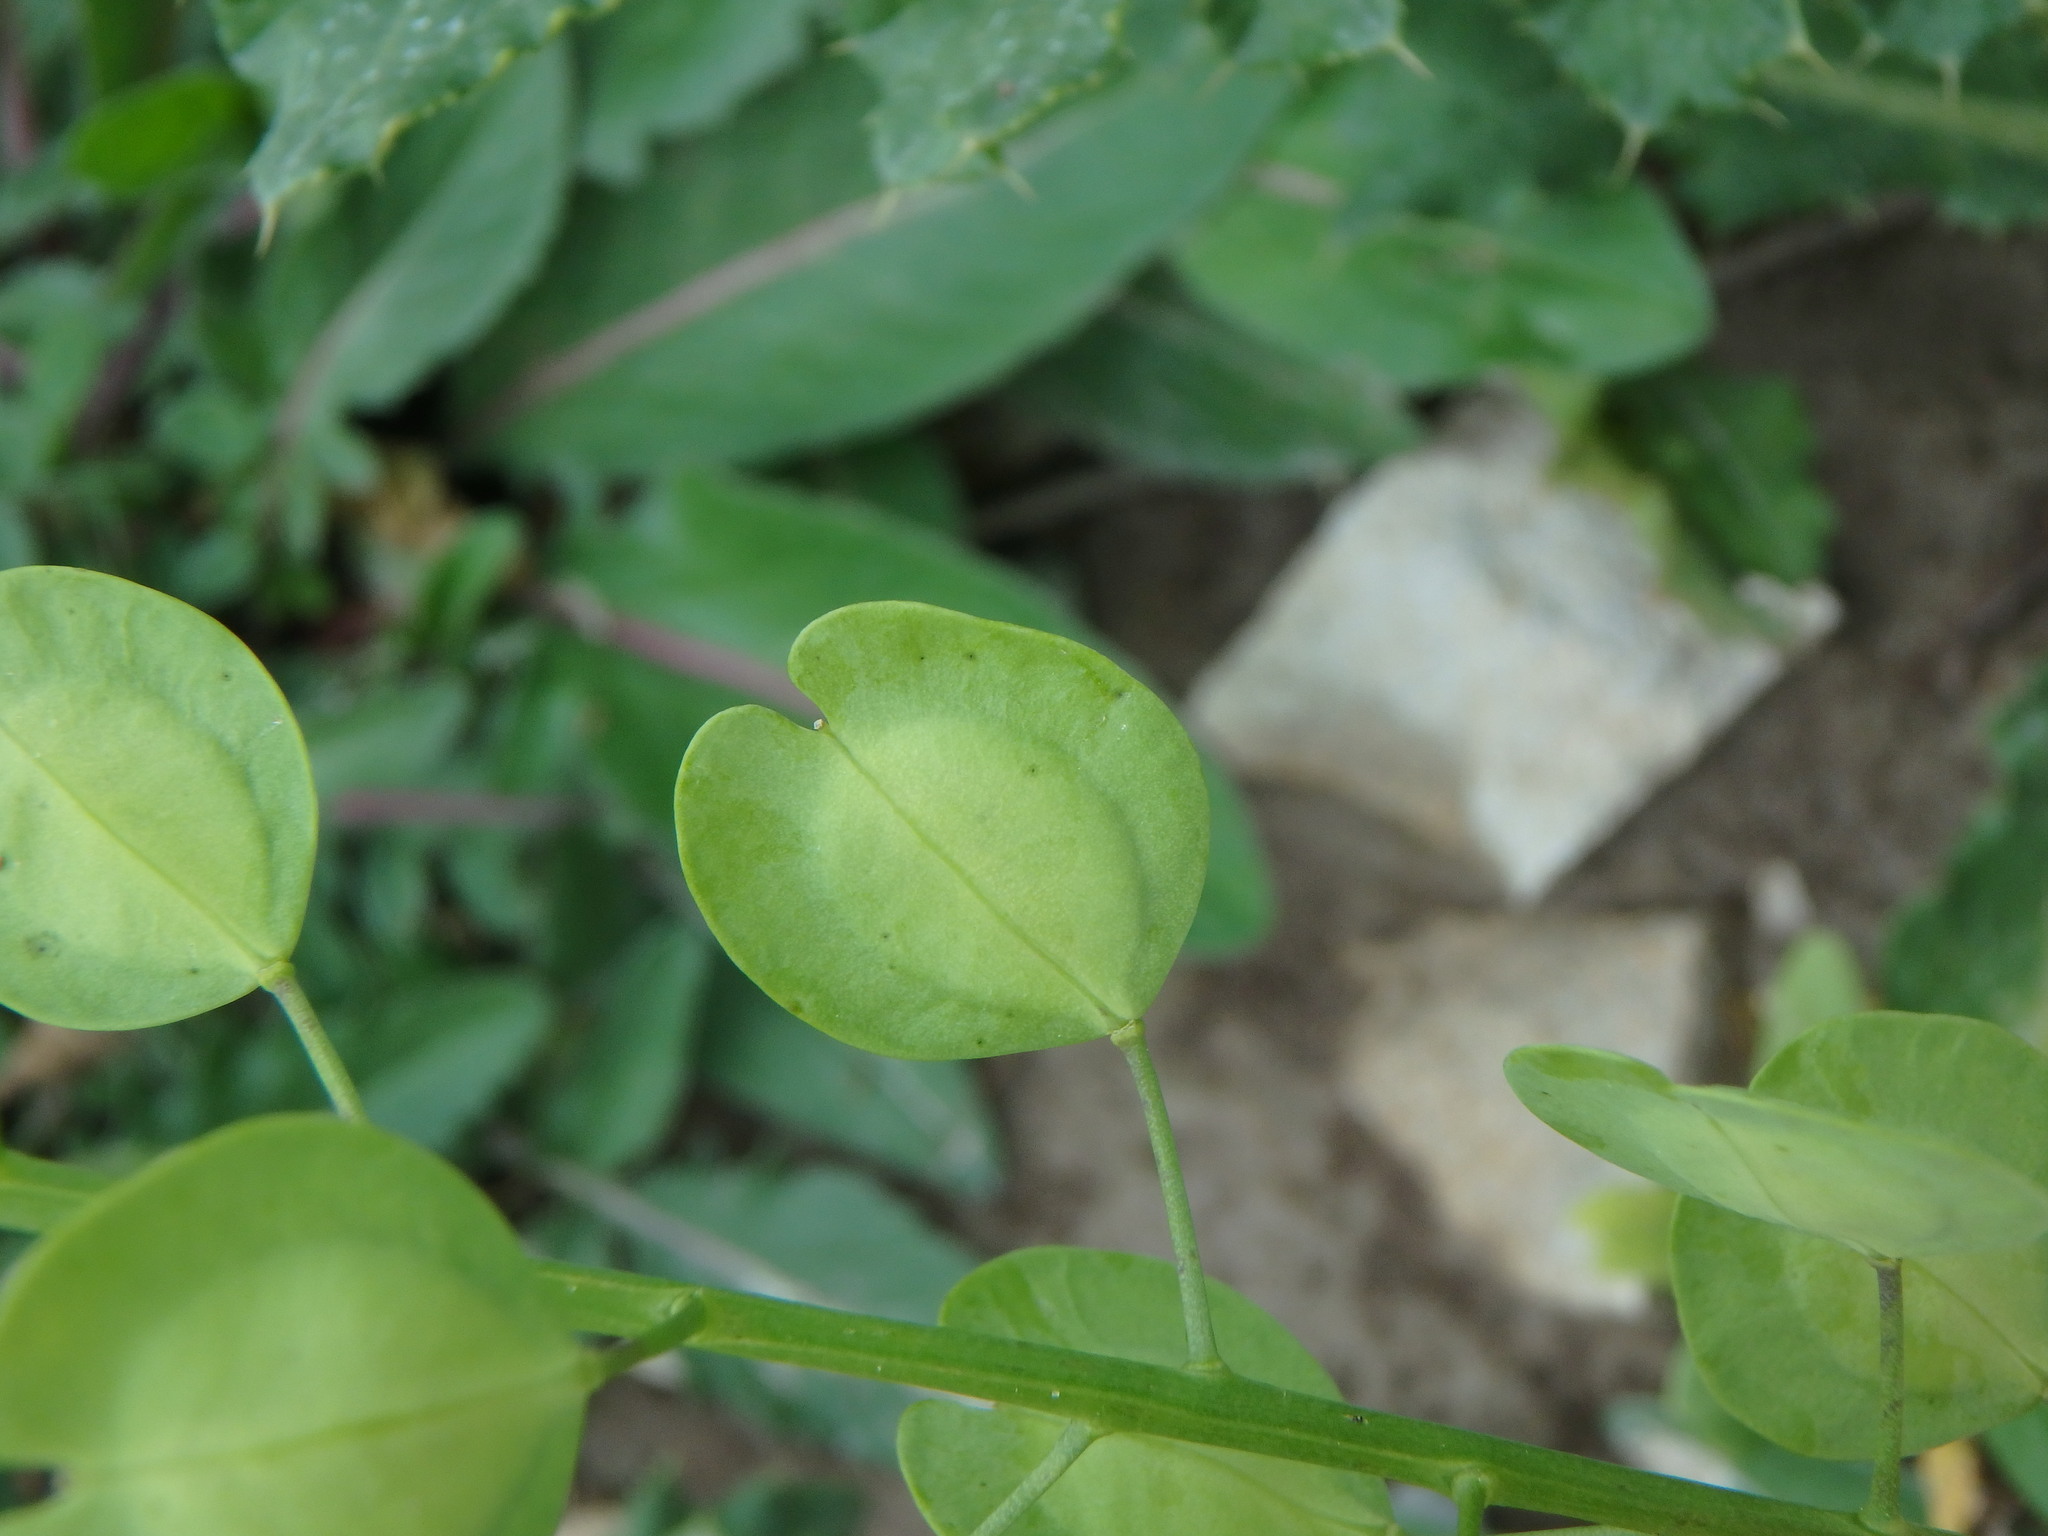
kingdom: Plantae
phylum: Tracheophyta
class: Magnoliopsida
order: Brassicales
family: Brassicaceae
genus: Thlaspi
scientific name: Thlaspi arvense
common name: Field pennycress
